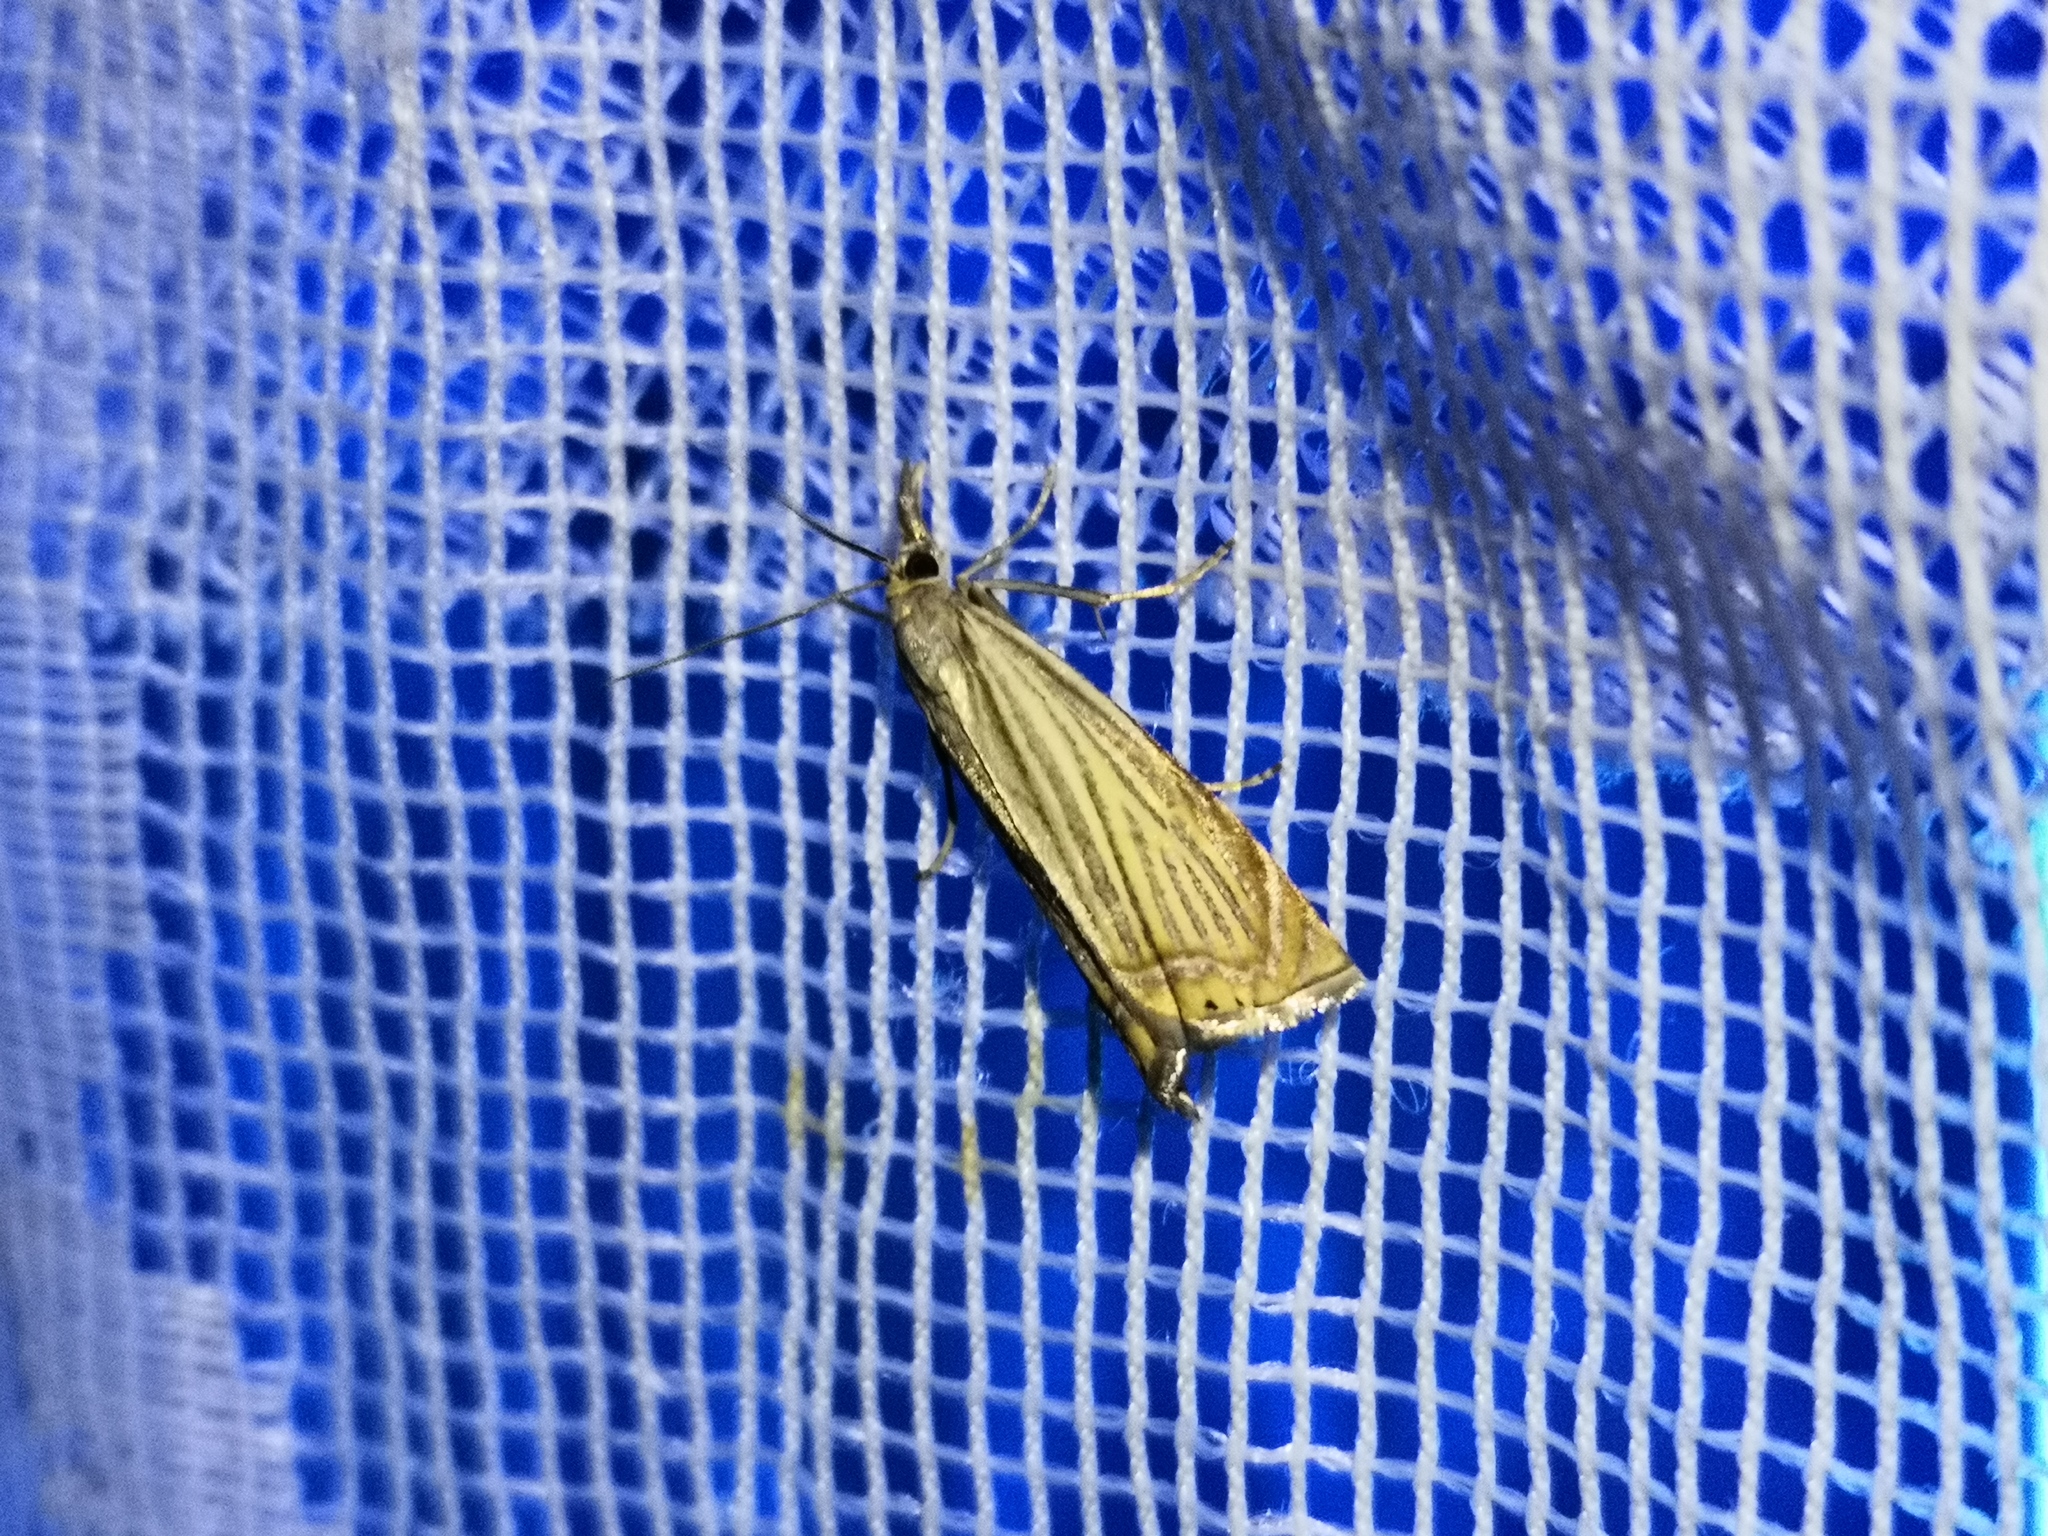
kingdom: Animalia
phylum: Arthropoda
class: Insecta
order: Lepidoptera
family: Crambidae
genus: Chrysoteuchia
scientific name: Chrysoteuchia culmella
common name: Garden grass-veneer
